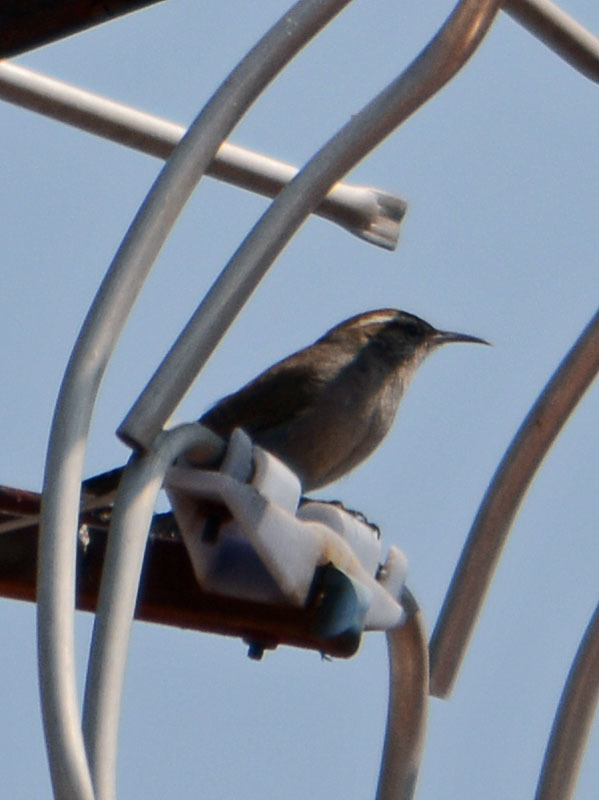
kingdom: Animalia
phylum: Chordata
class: Aves
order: Passeriformes
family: Troglodytidae
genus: Thryomanes
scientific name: Thryomanes bewickii
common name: Bewick's wren
